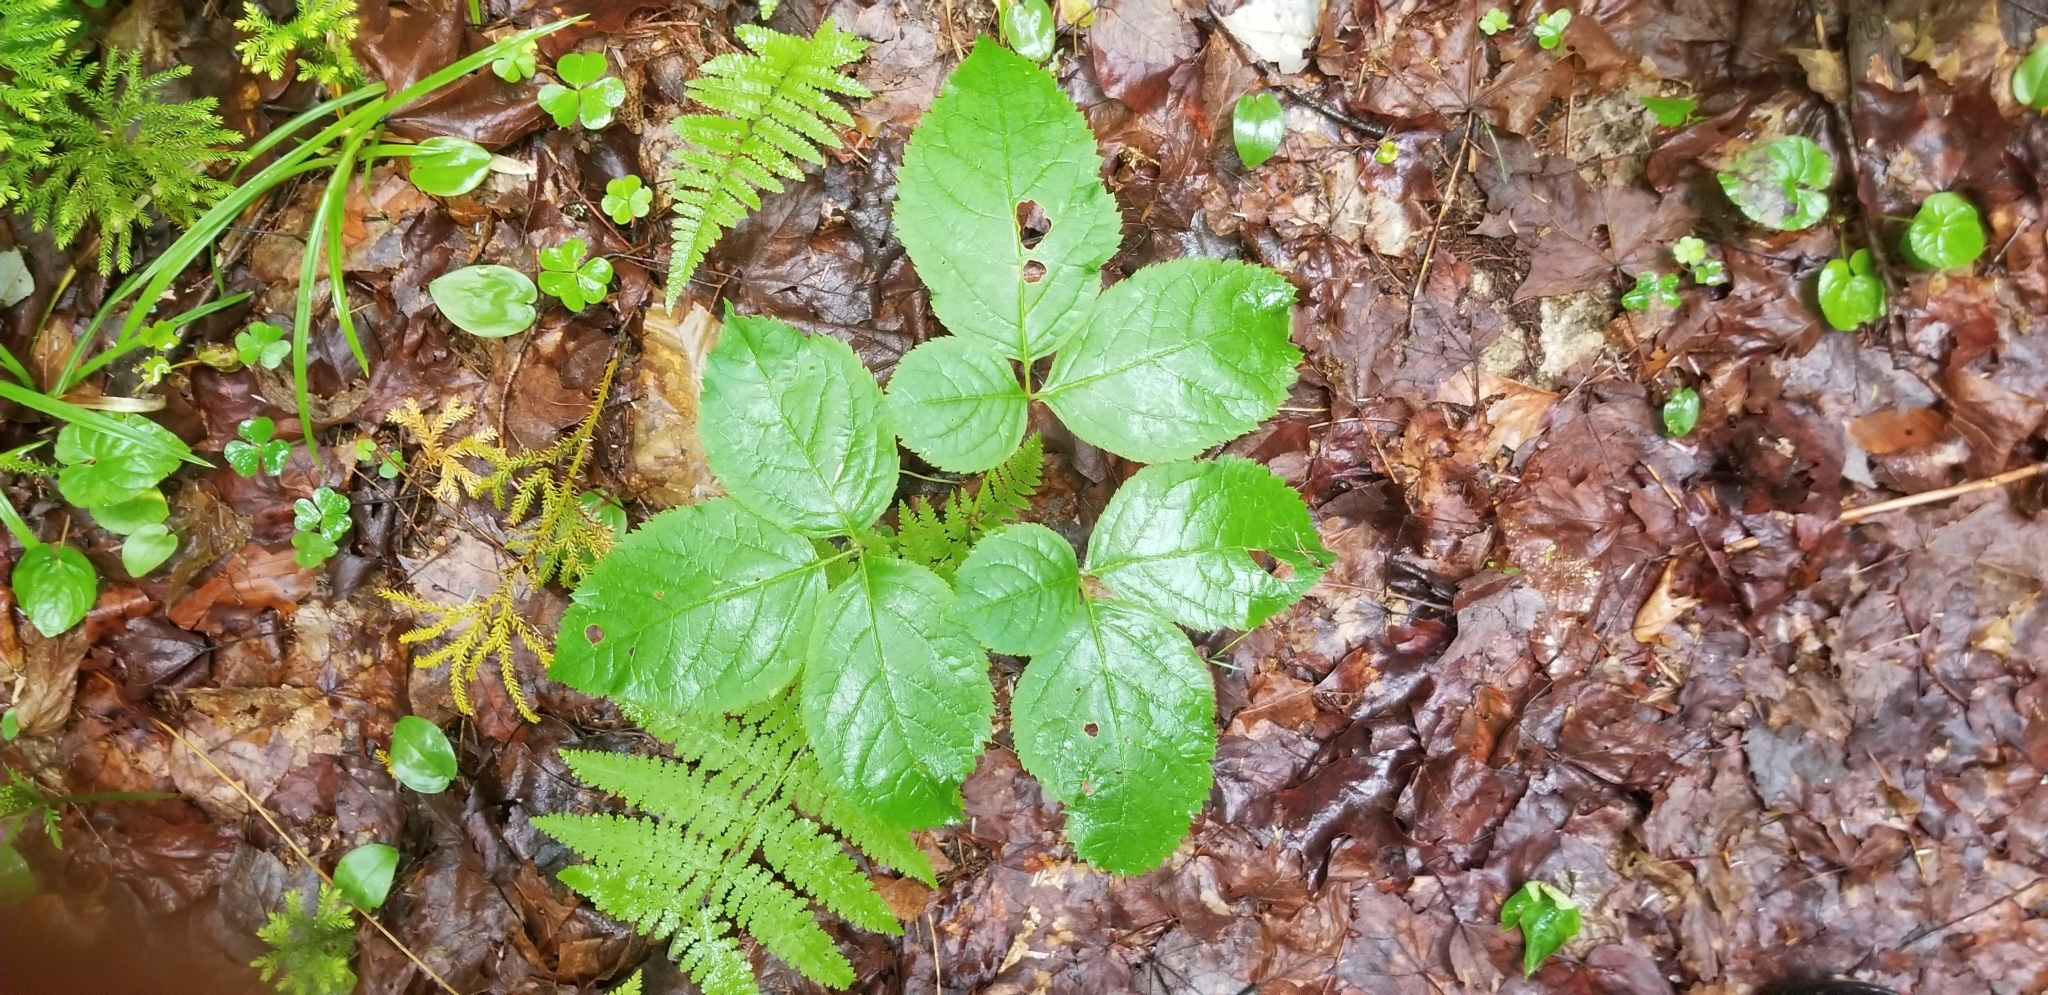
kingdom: Plantae
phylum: Tracheophyta
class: Magnoliopsida
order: Apiales
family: Araliaceae
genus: Aralia
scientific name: Aralia nudicaulis
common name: Wild sarsaparilla
